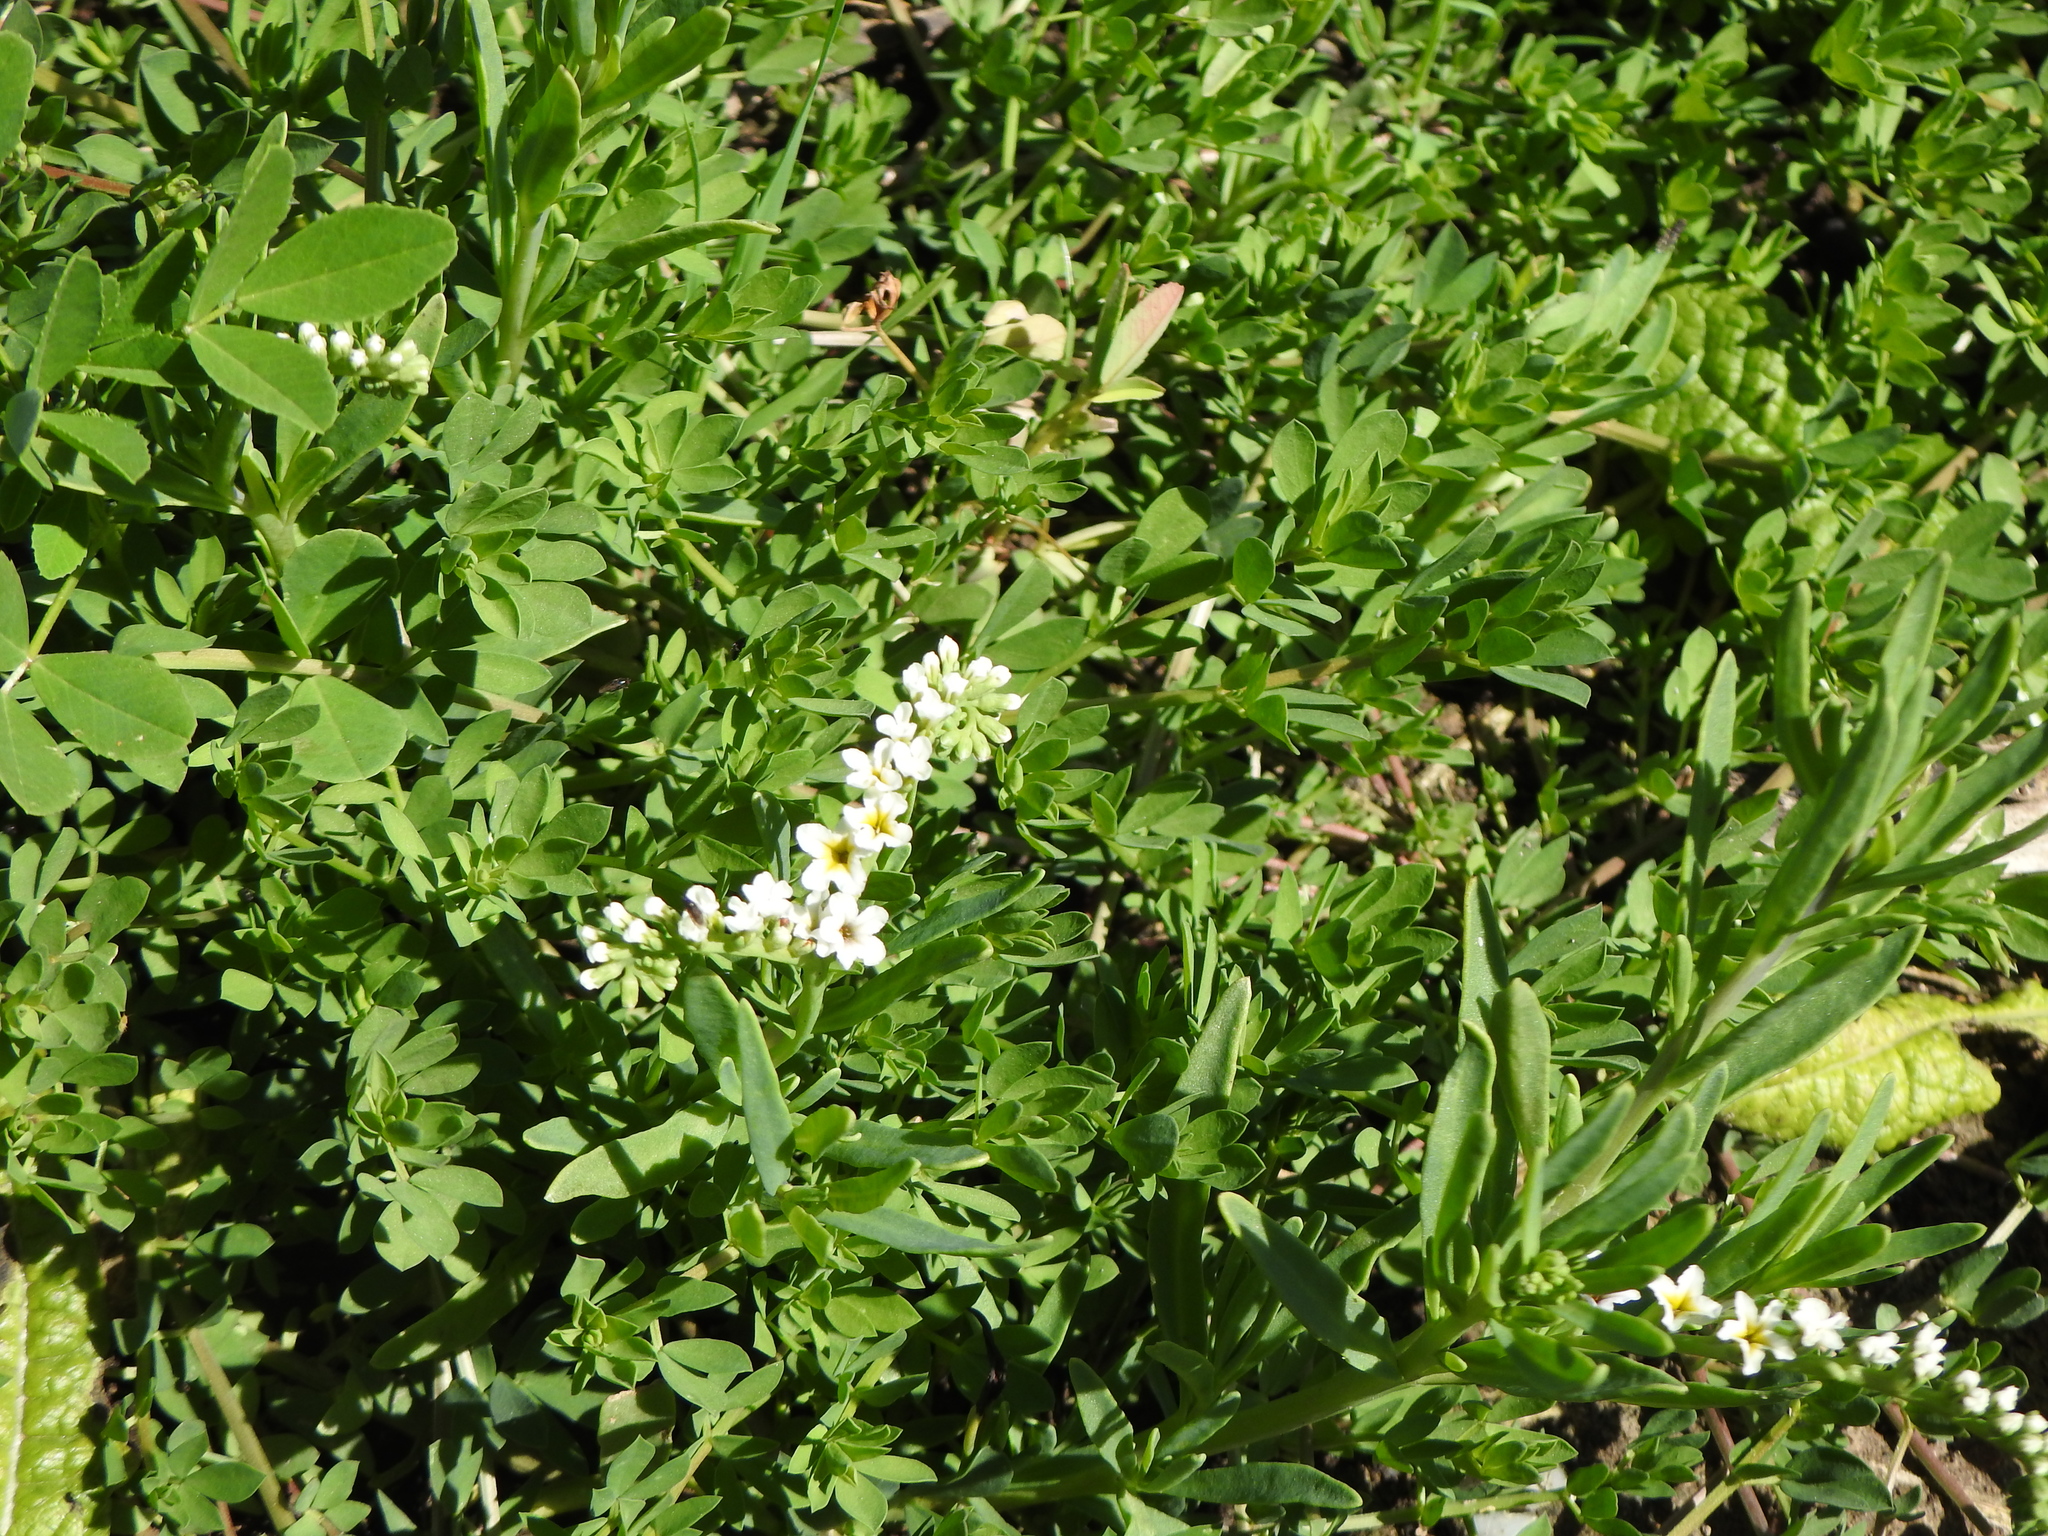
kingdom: Plantae
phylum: Tracheophyta
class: Magnoliopsida
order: Boraginales
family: Heliotropiaceae
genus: Heliotropium
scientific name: Heliotropium curassavicum
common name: Seaside heliotrope
